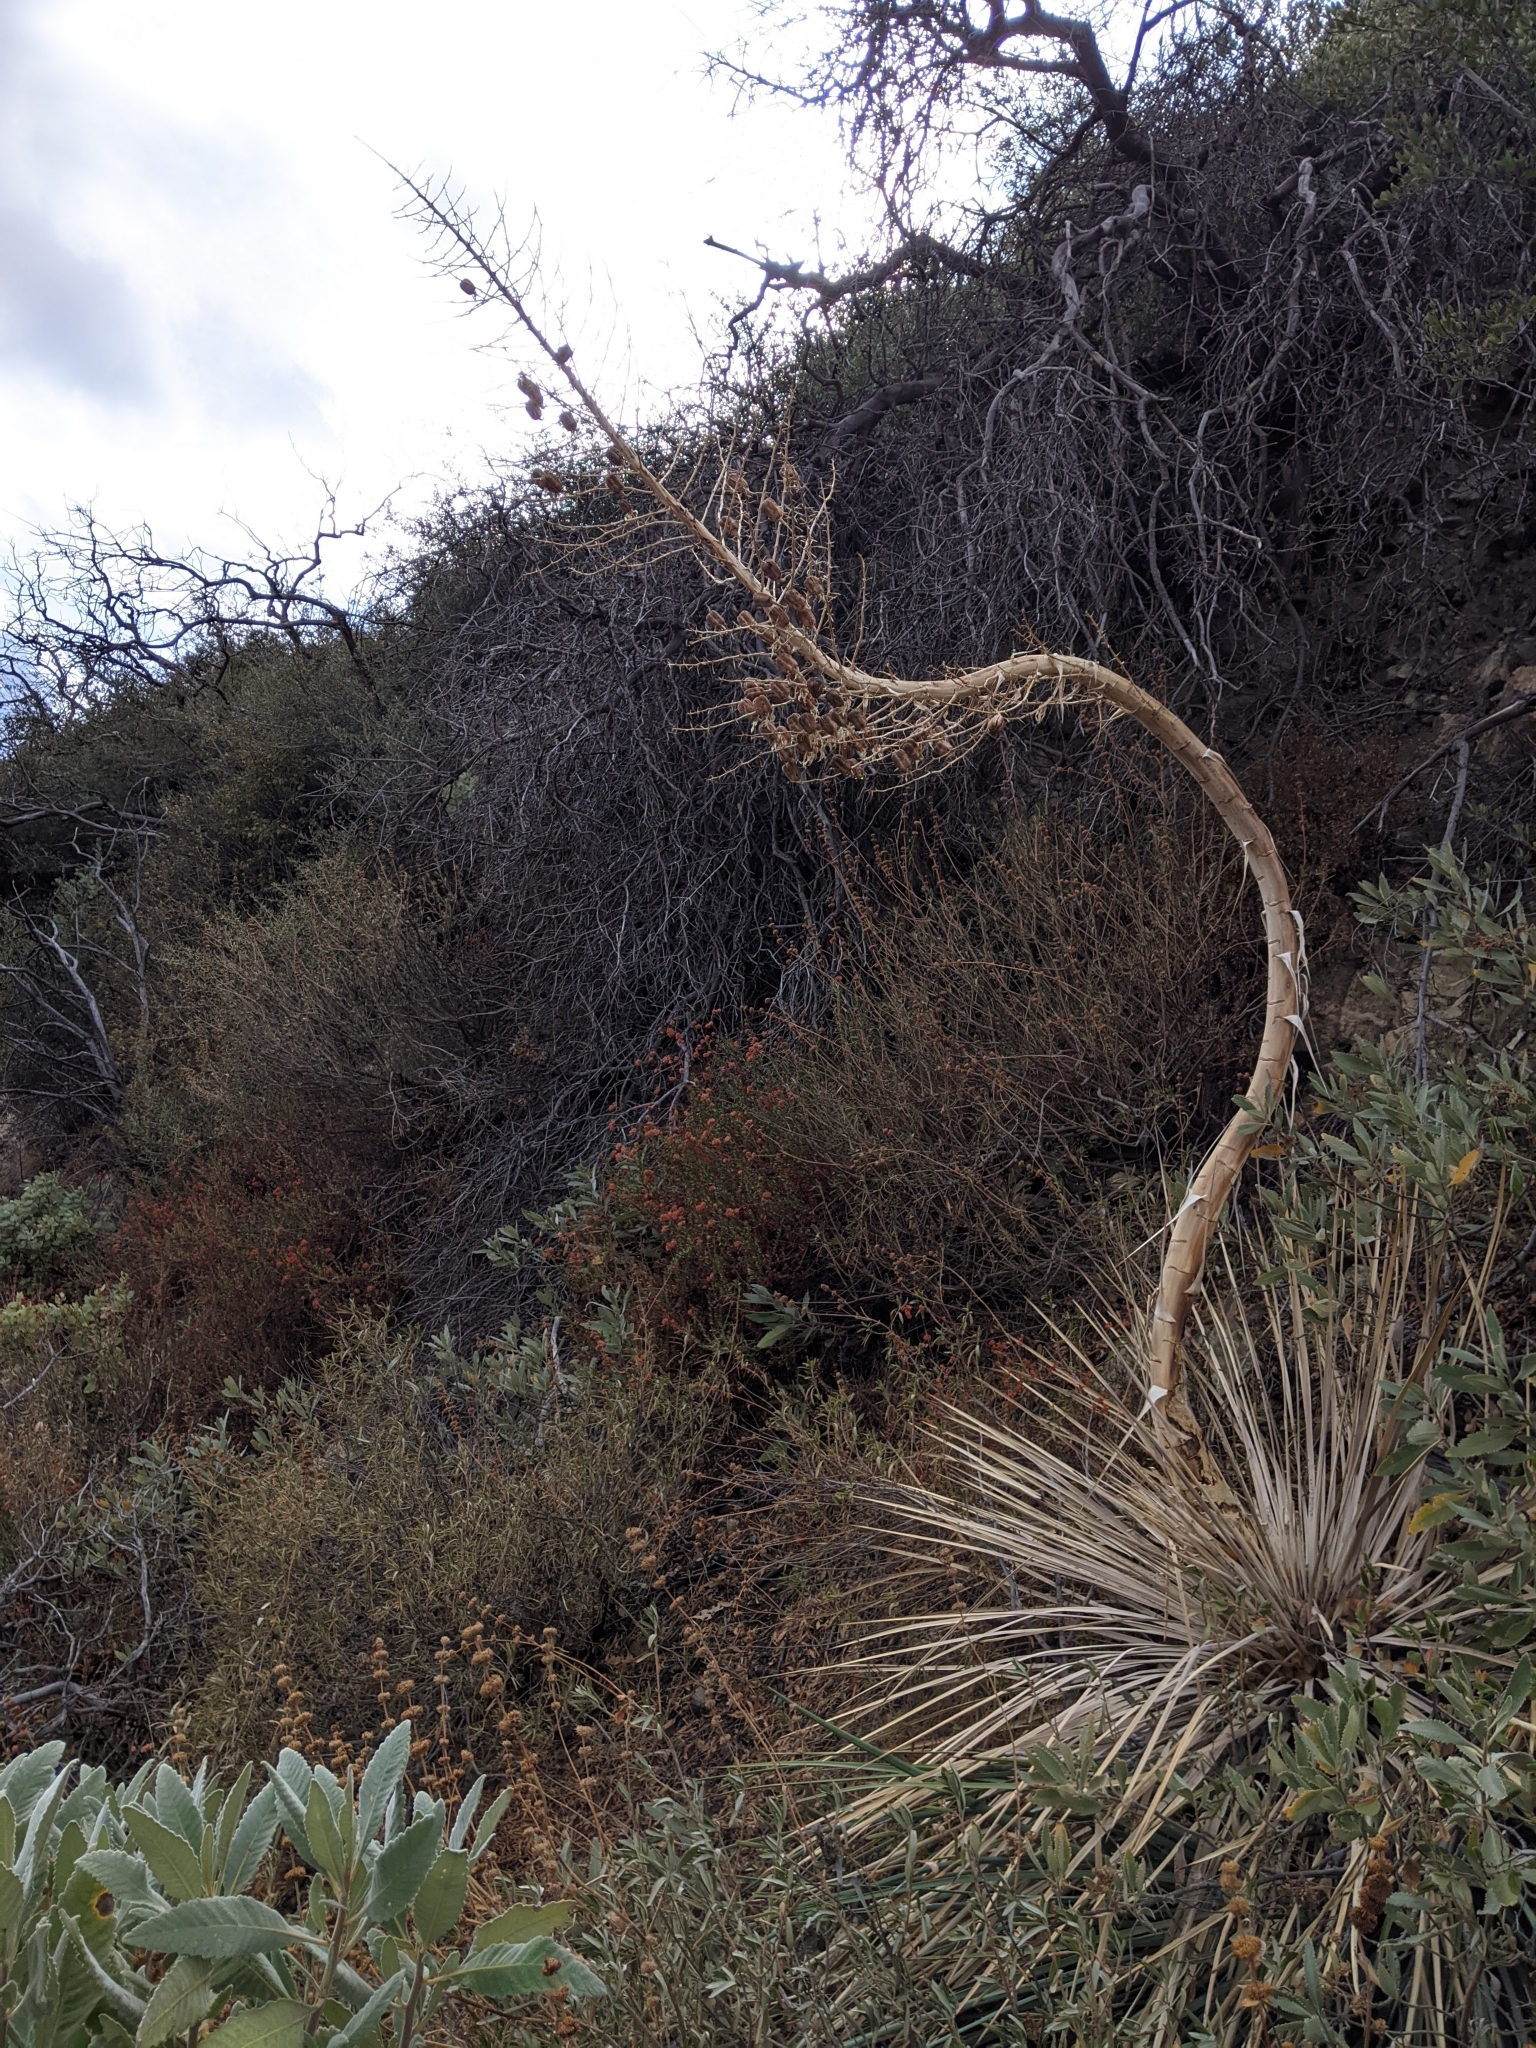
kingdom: Plantae
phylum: Tracheophyta
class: Liliopsida
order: Asparagales
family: Asparagaceae
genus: Hesperoyucca
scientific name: Hesperoyucca whipplei
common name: Our lord's-candle
